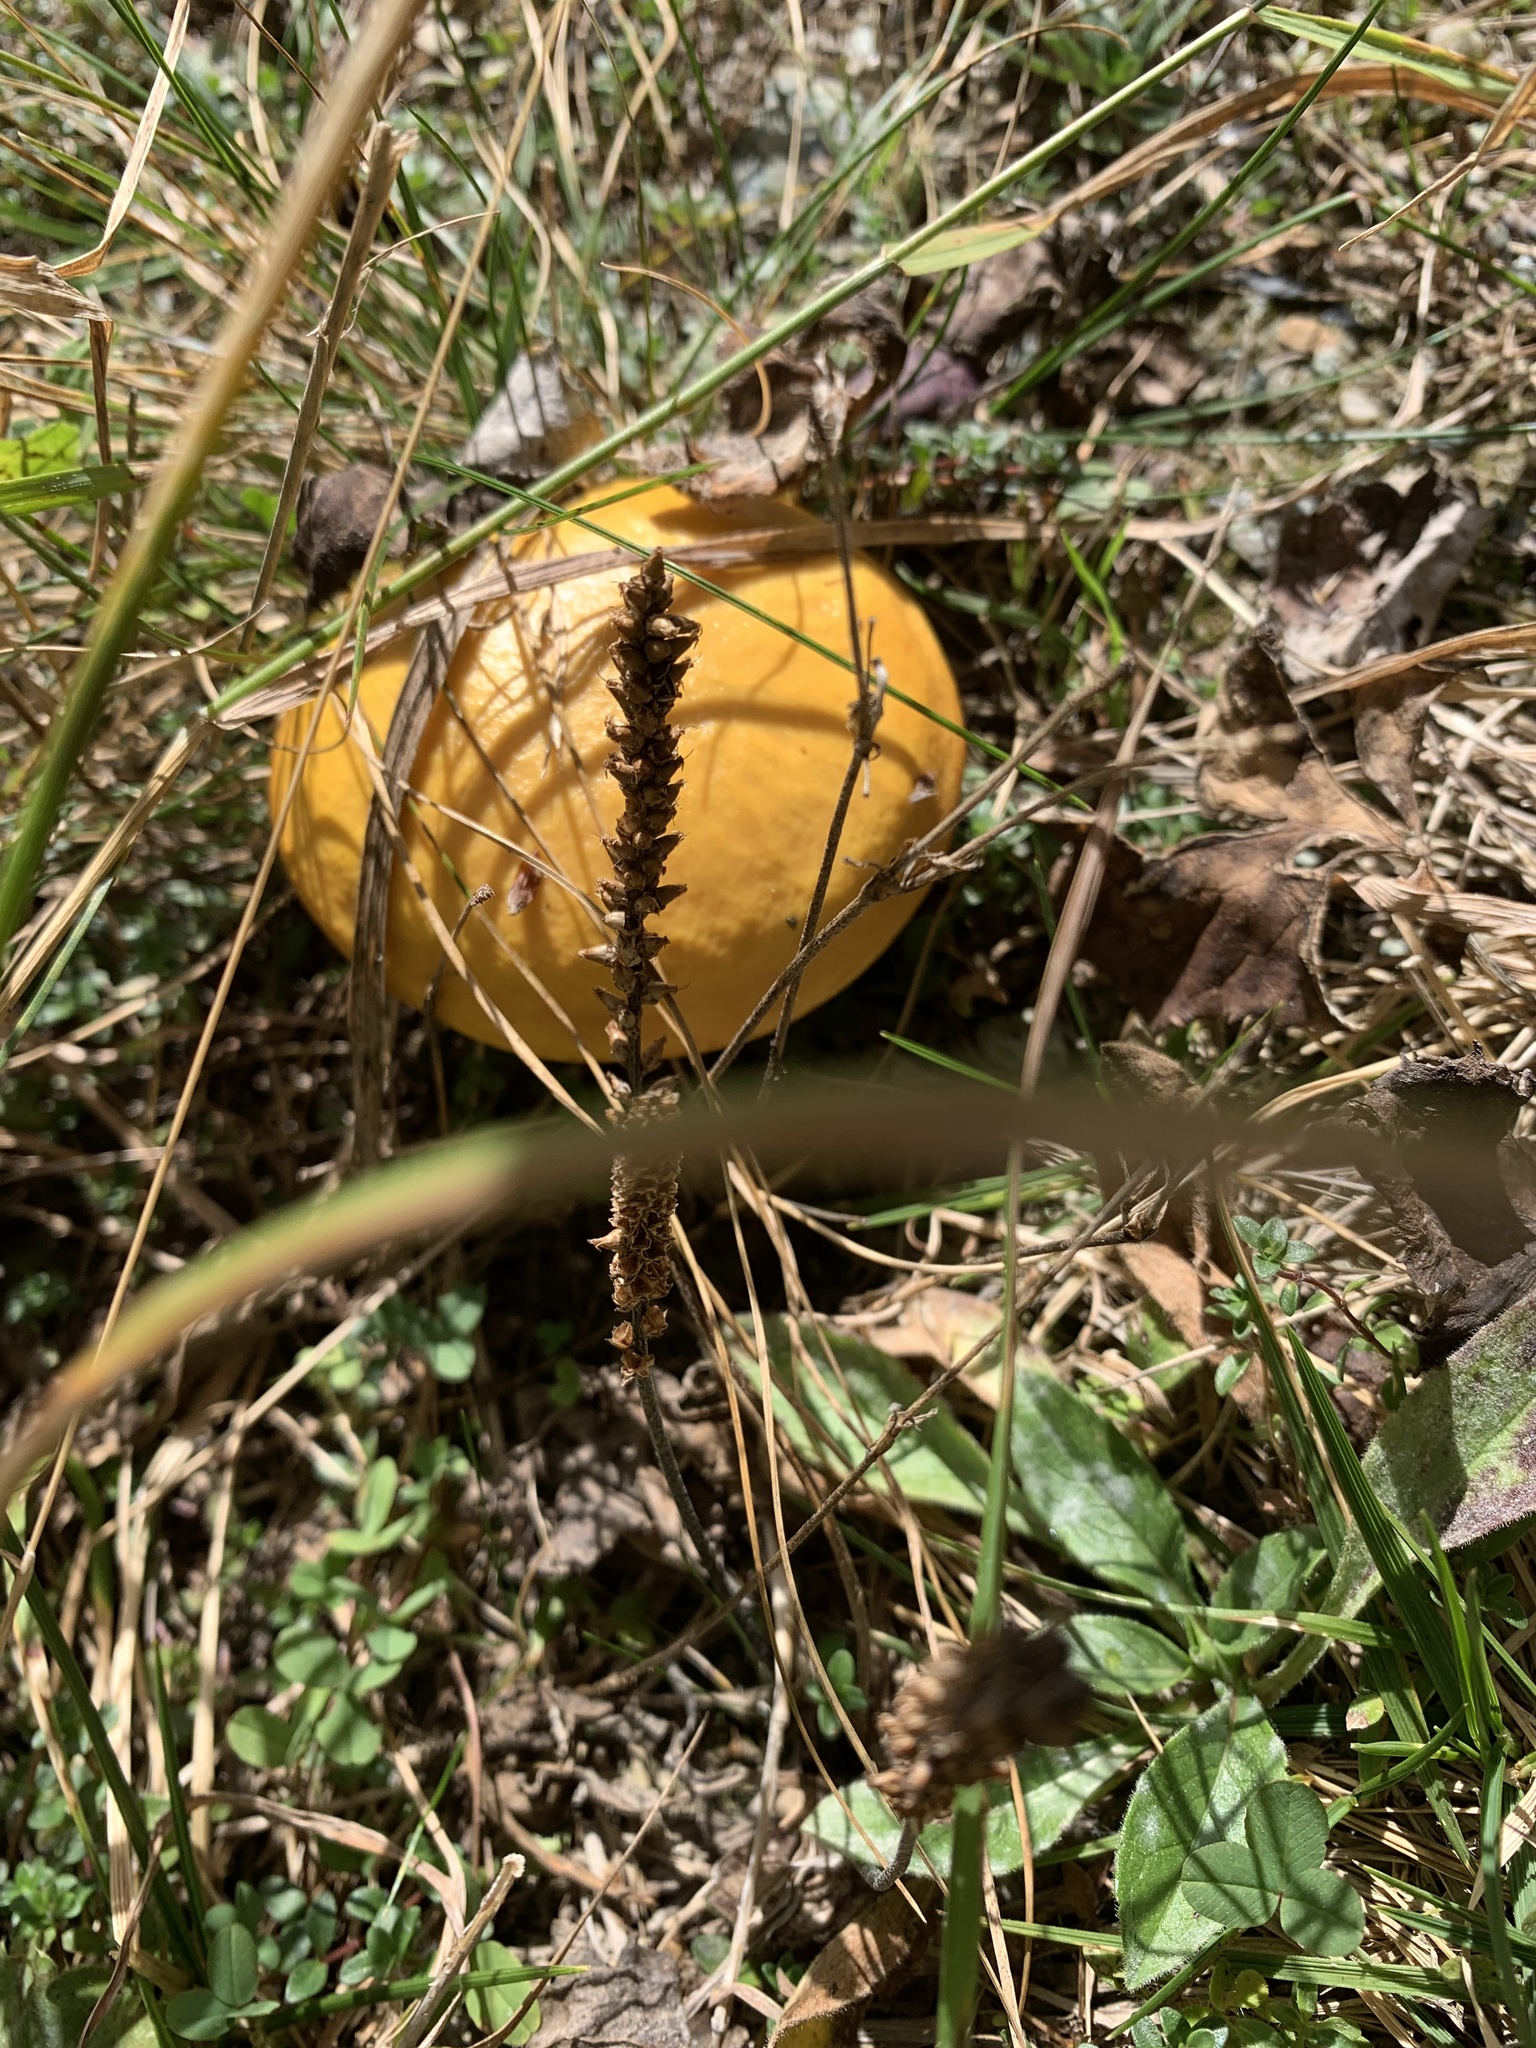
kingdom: Fungi
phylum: Basidiomycota
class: Agaricomycetes
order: Boletales
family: Suillaceae
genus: Suillus
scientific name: Suillus grevillei
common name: Larch bolete
